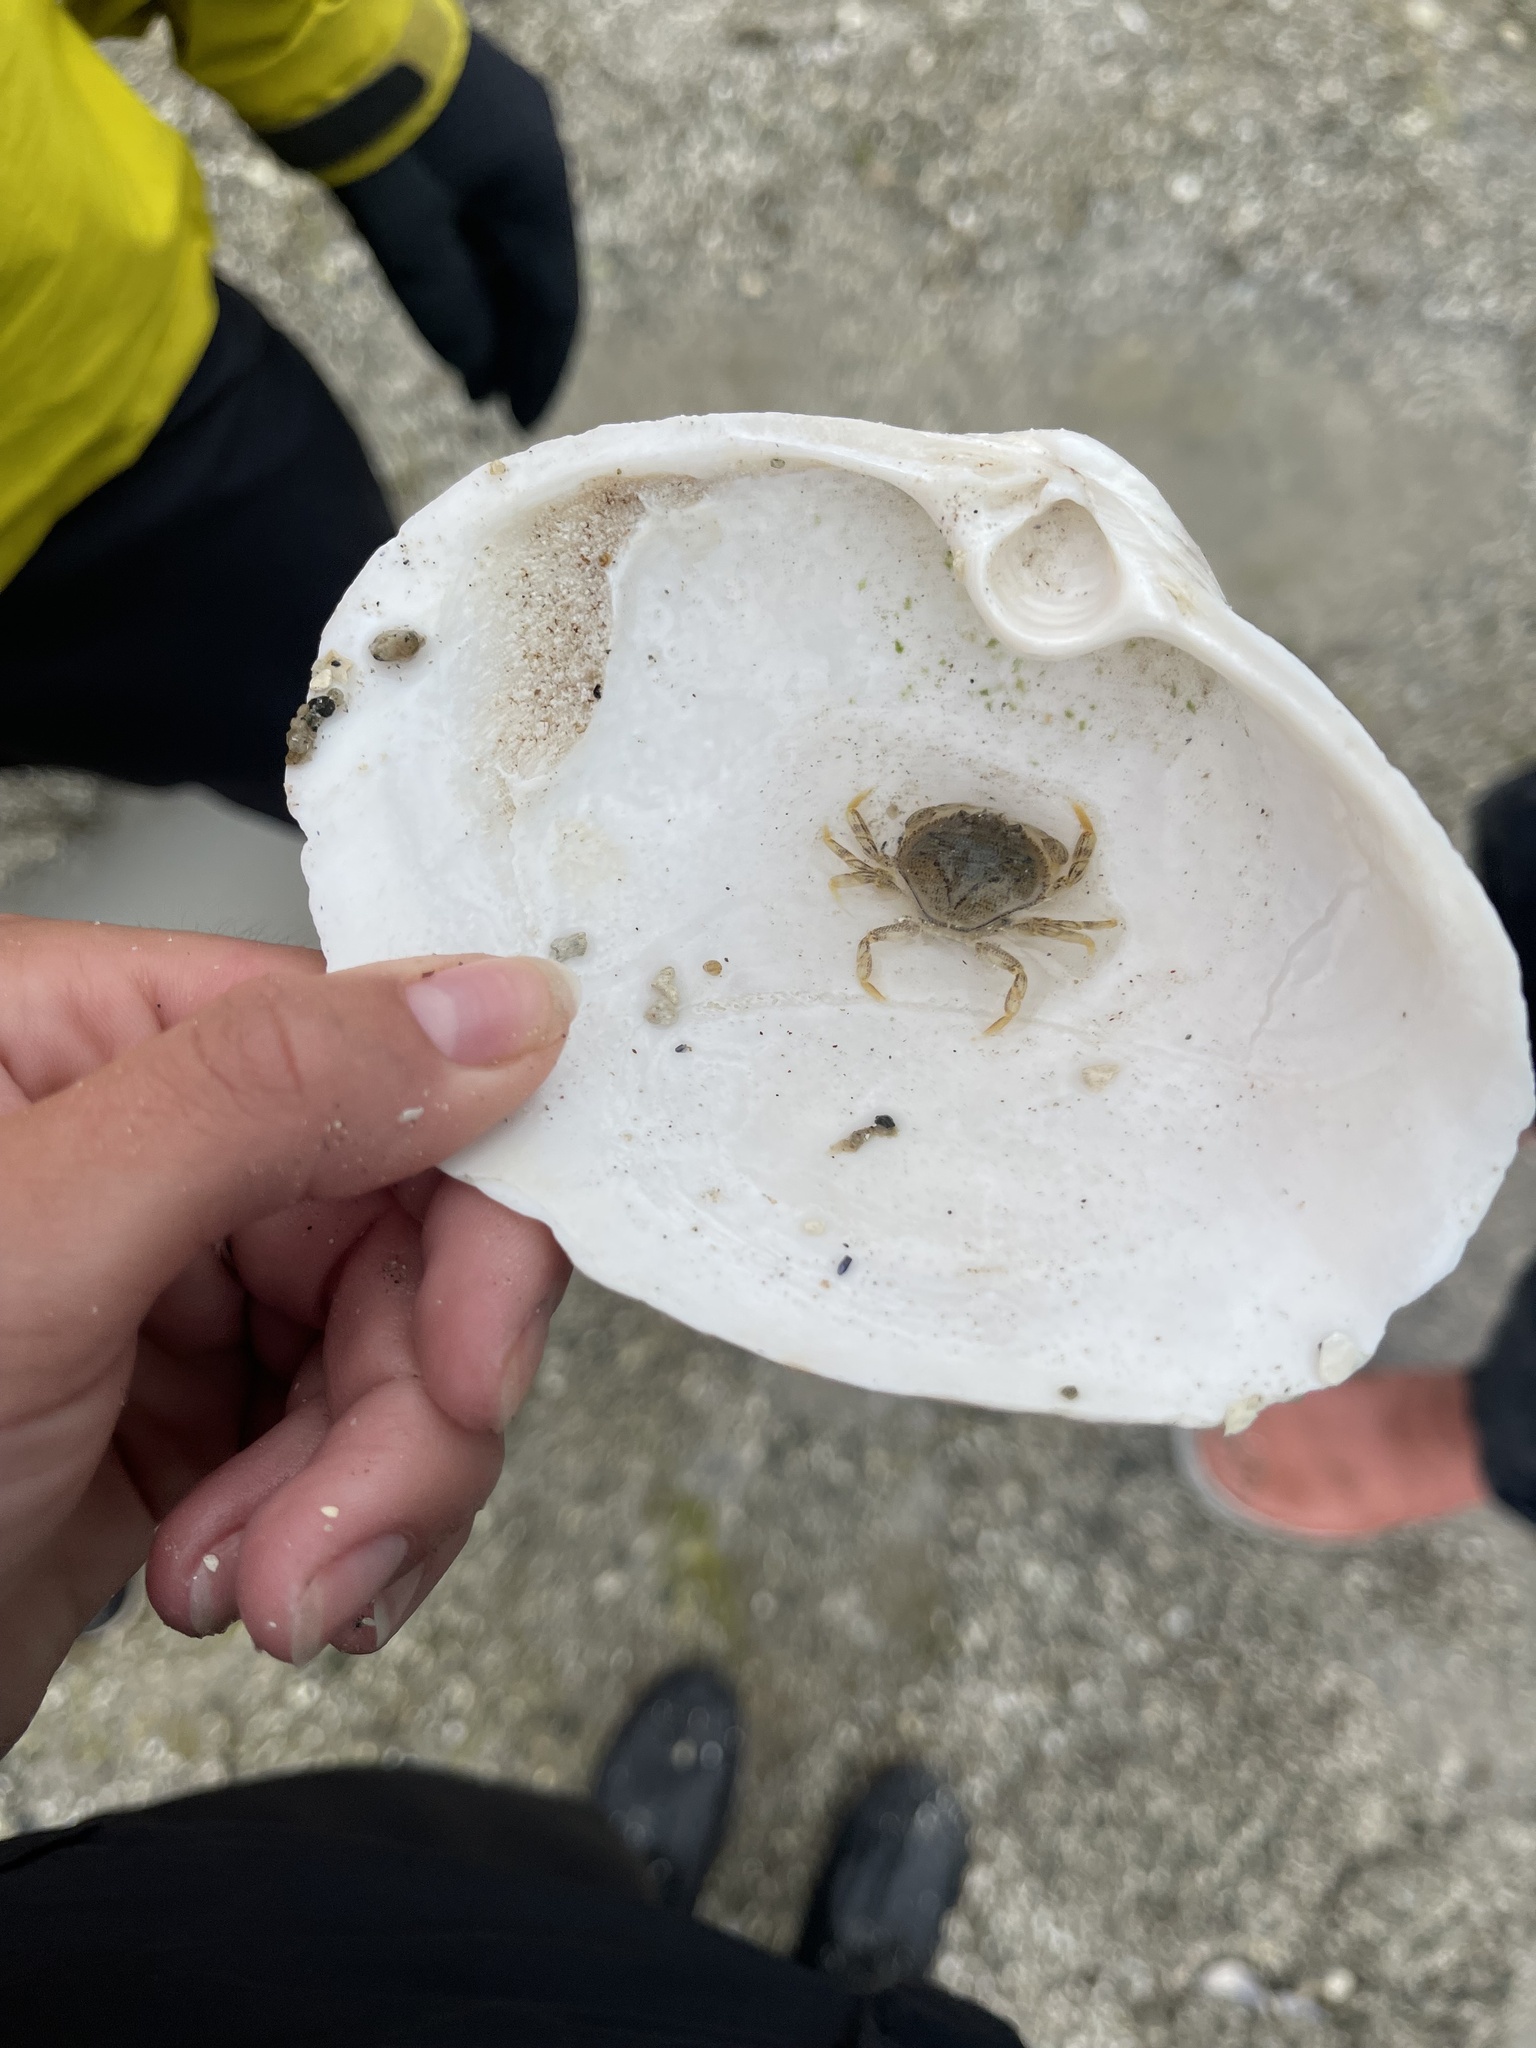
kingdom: Animalia
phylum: Arthropoda
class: Malacostraca
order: Decapoda
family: Cancridae
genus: Metacarcinus
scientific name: Metacarcinus magister
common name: Californian crab
